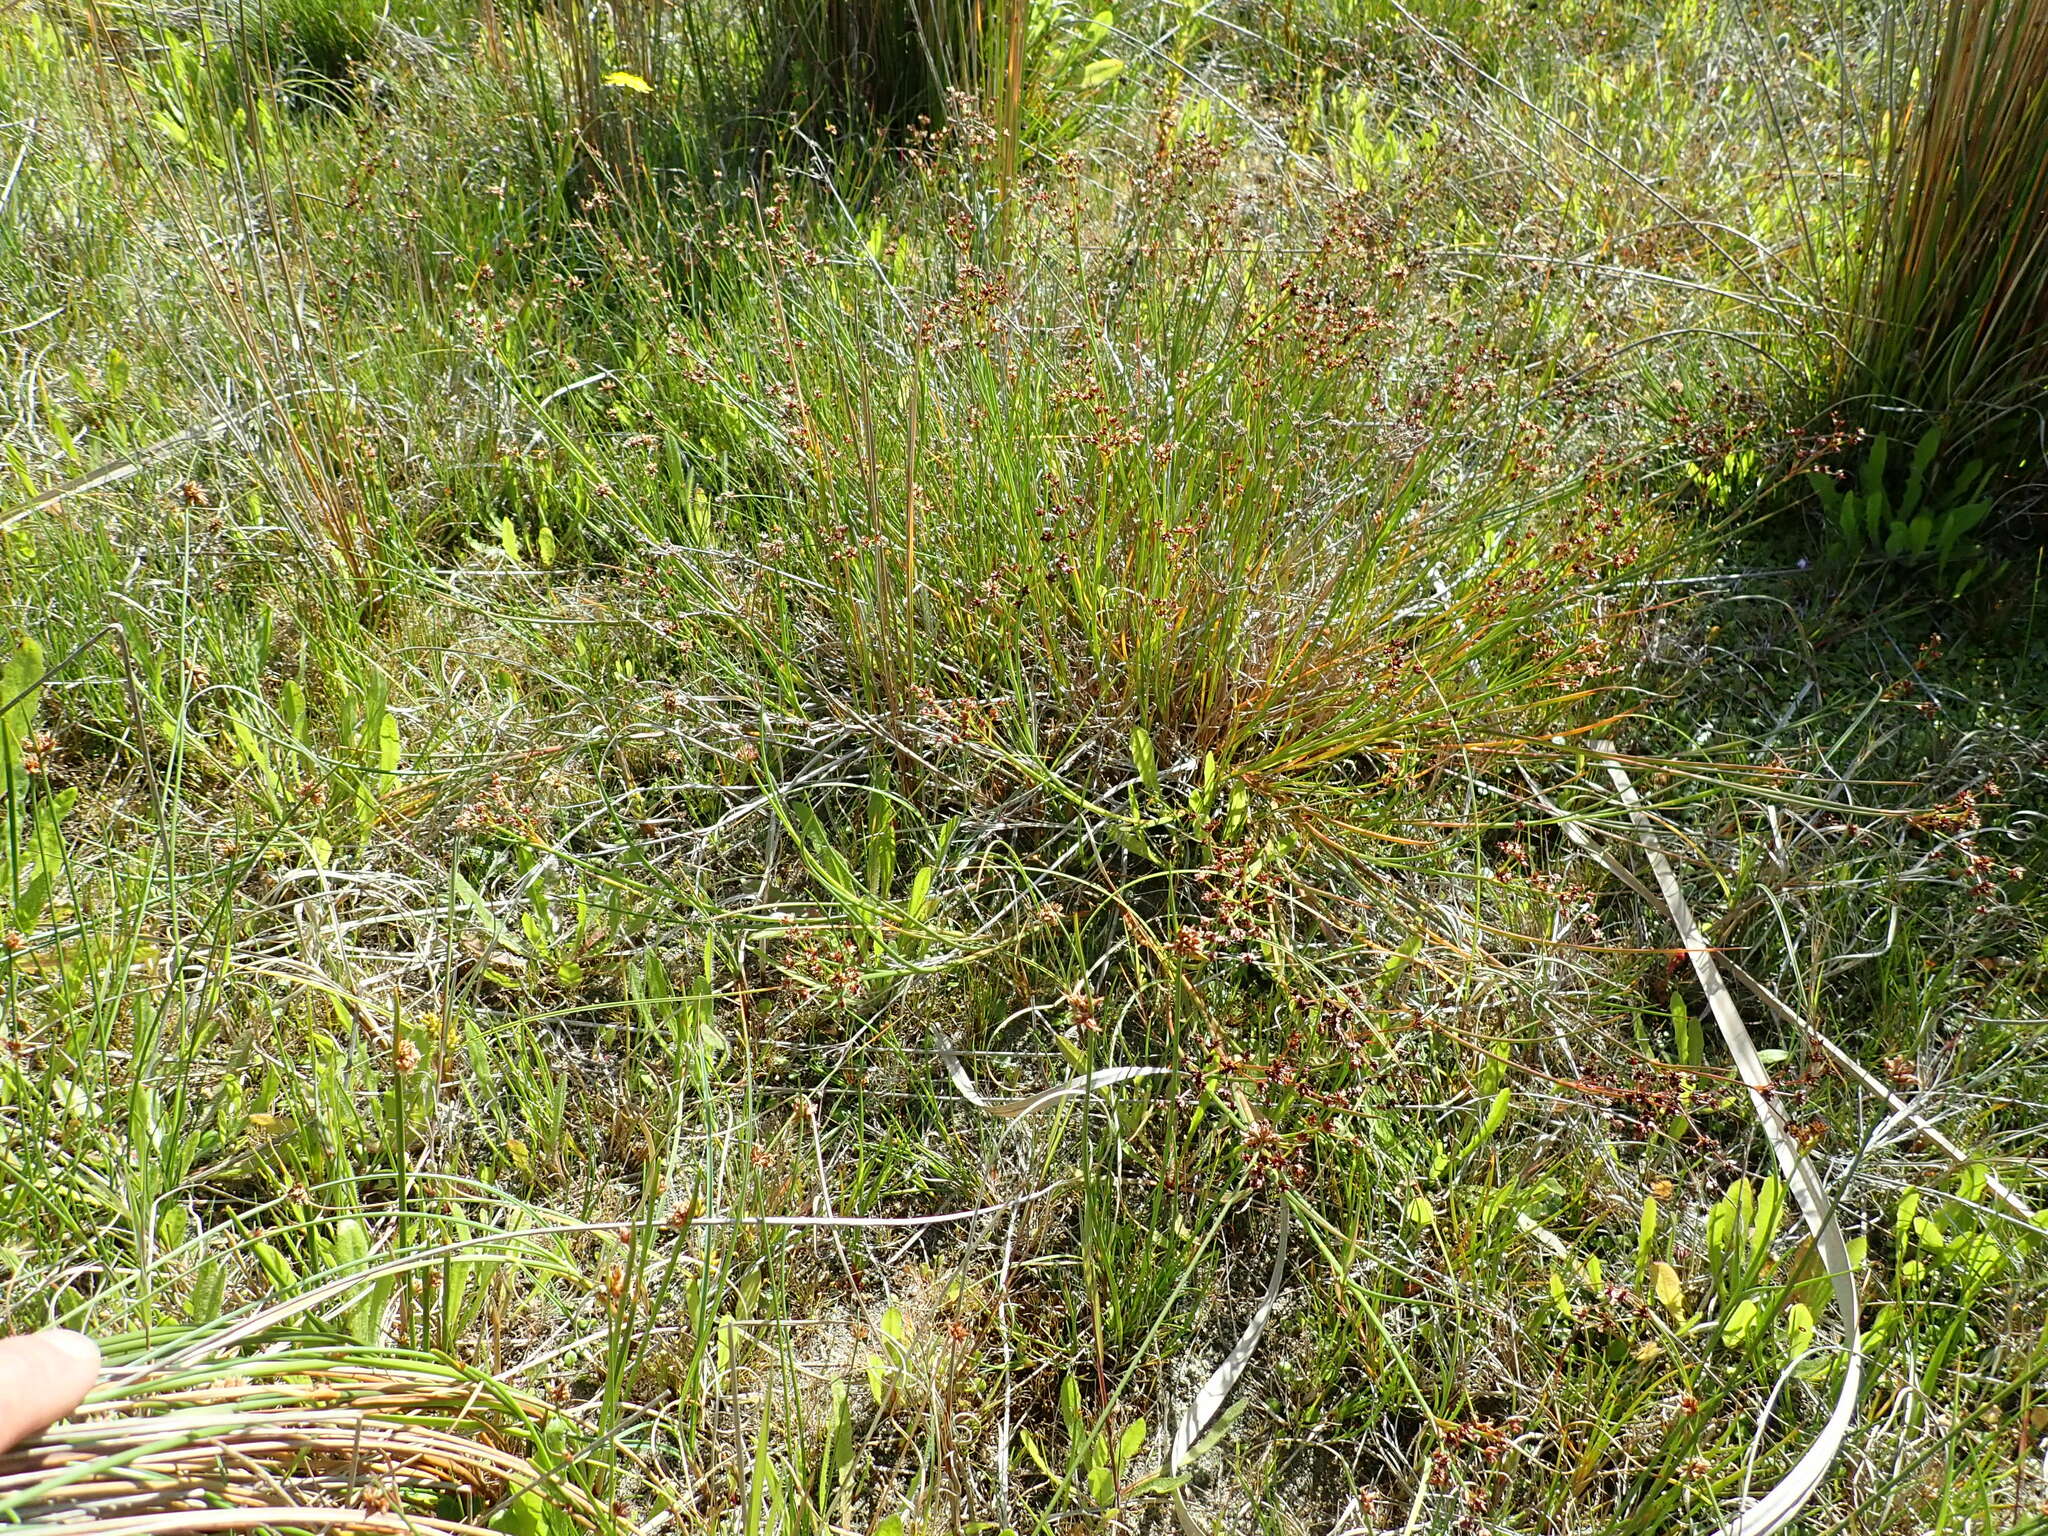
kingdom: Plantae
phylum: Tracheophyta
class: Liliopsida
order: Poales
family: Juncaceae
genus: Juncus
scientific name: Juncus articulatus
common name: Jointed rush
